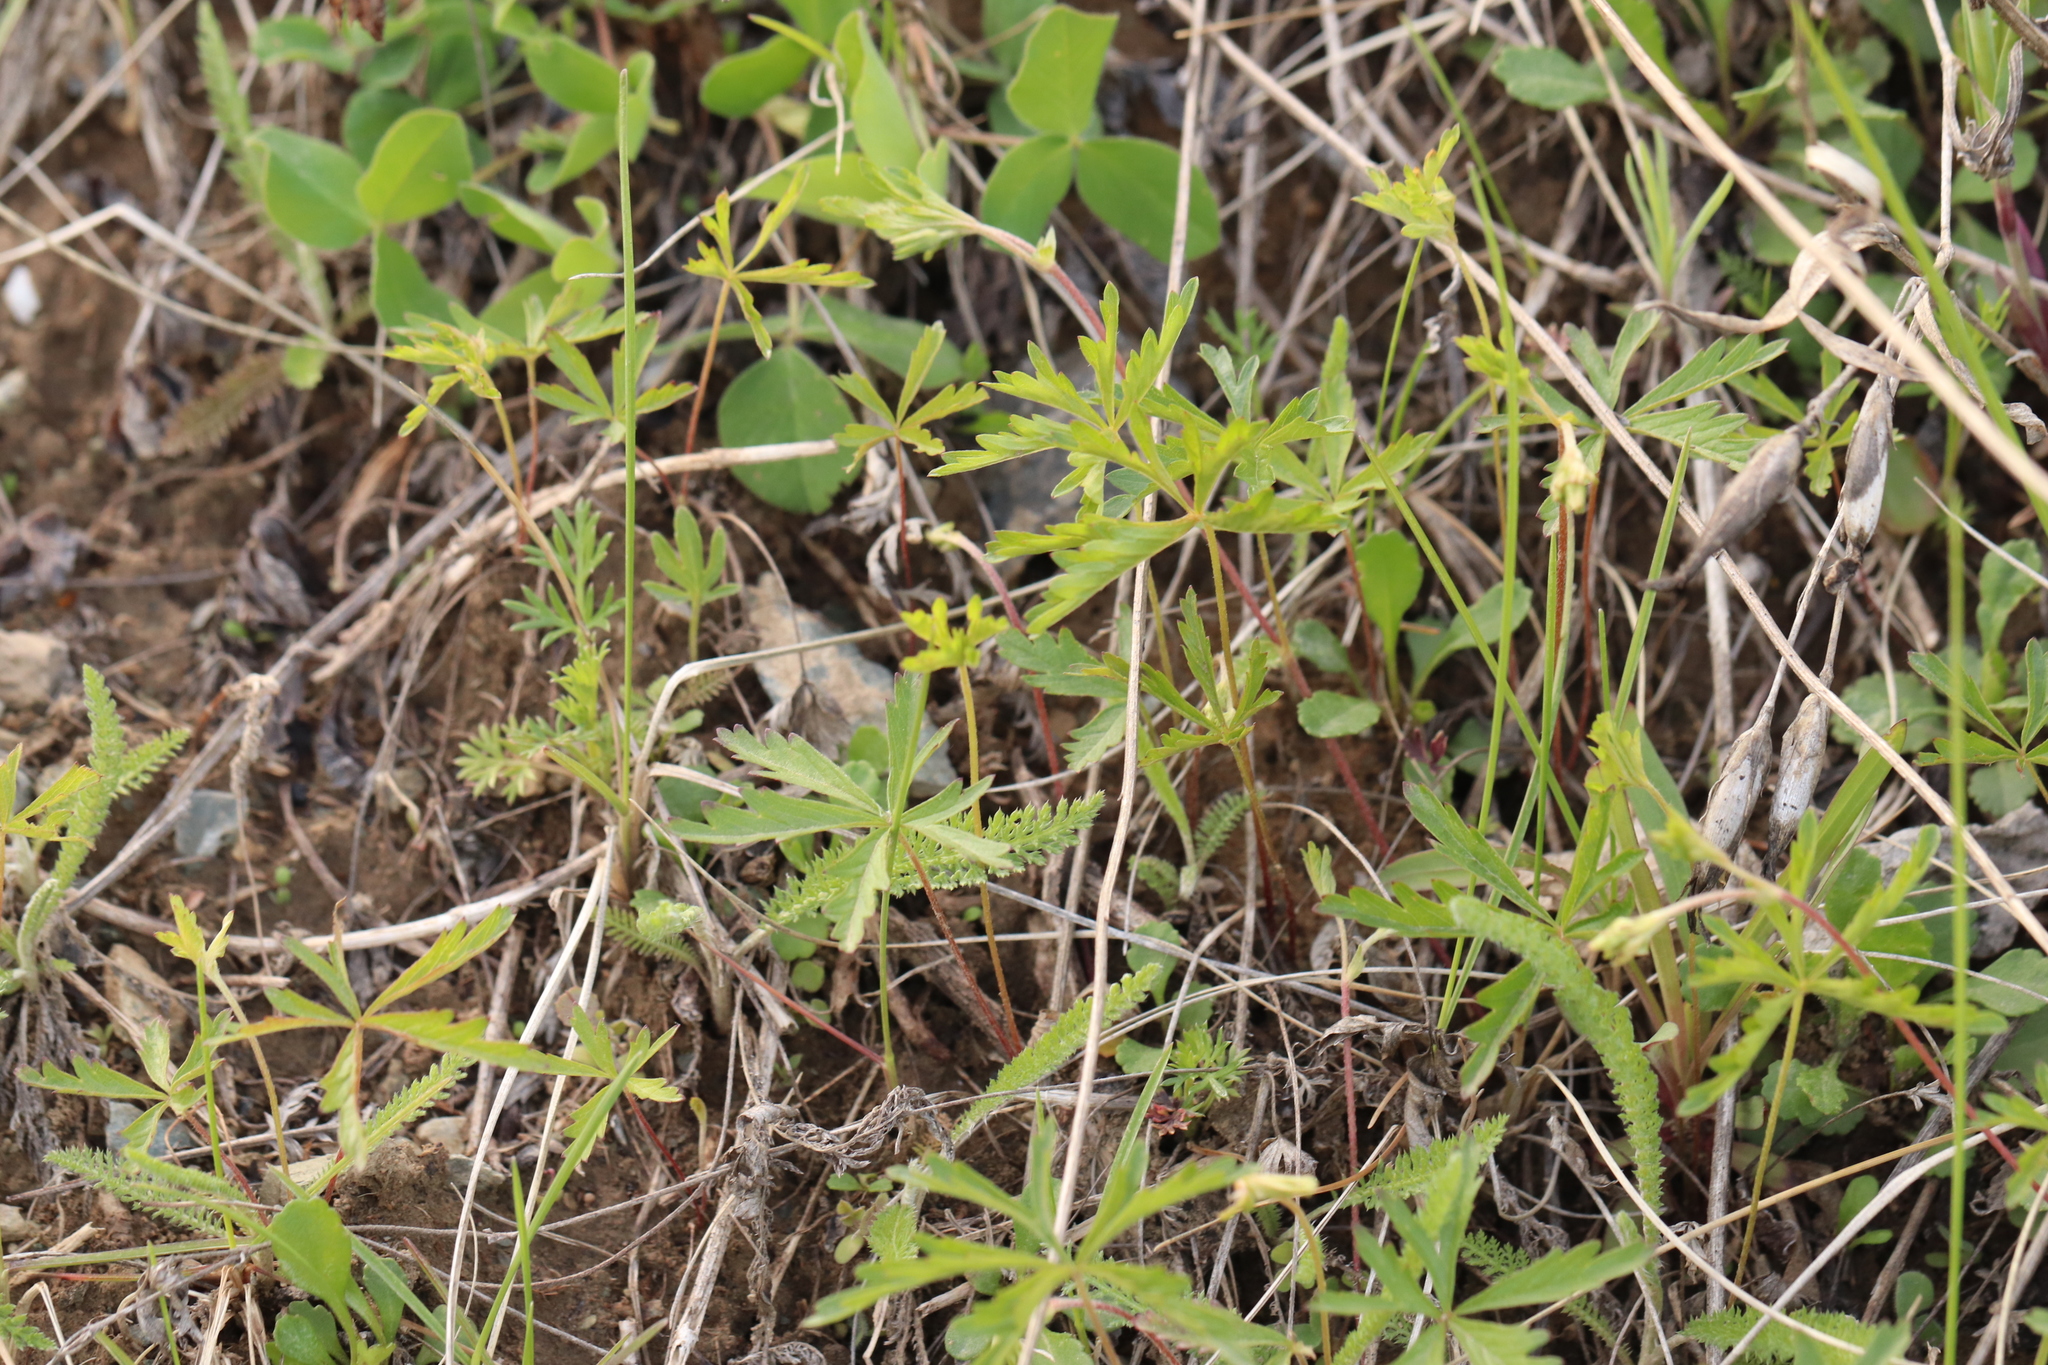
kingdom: Plantae
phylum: Tracheophyta
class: Magnoliopsida
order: Rosales
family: Rosaceae
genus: Potentilla
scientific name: Potentilla flagellaris
